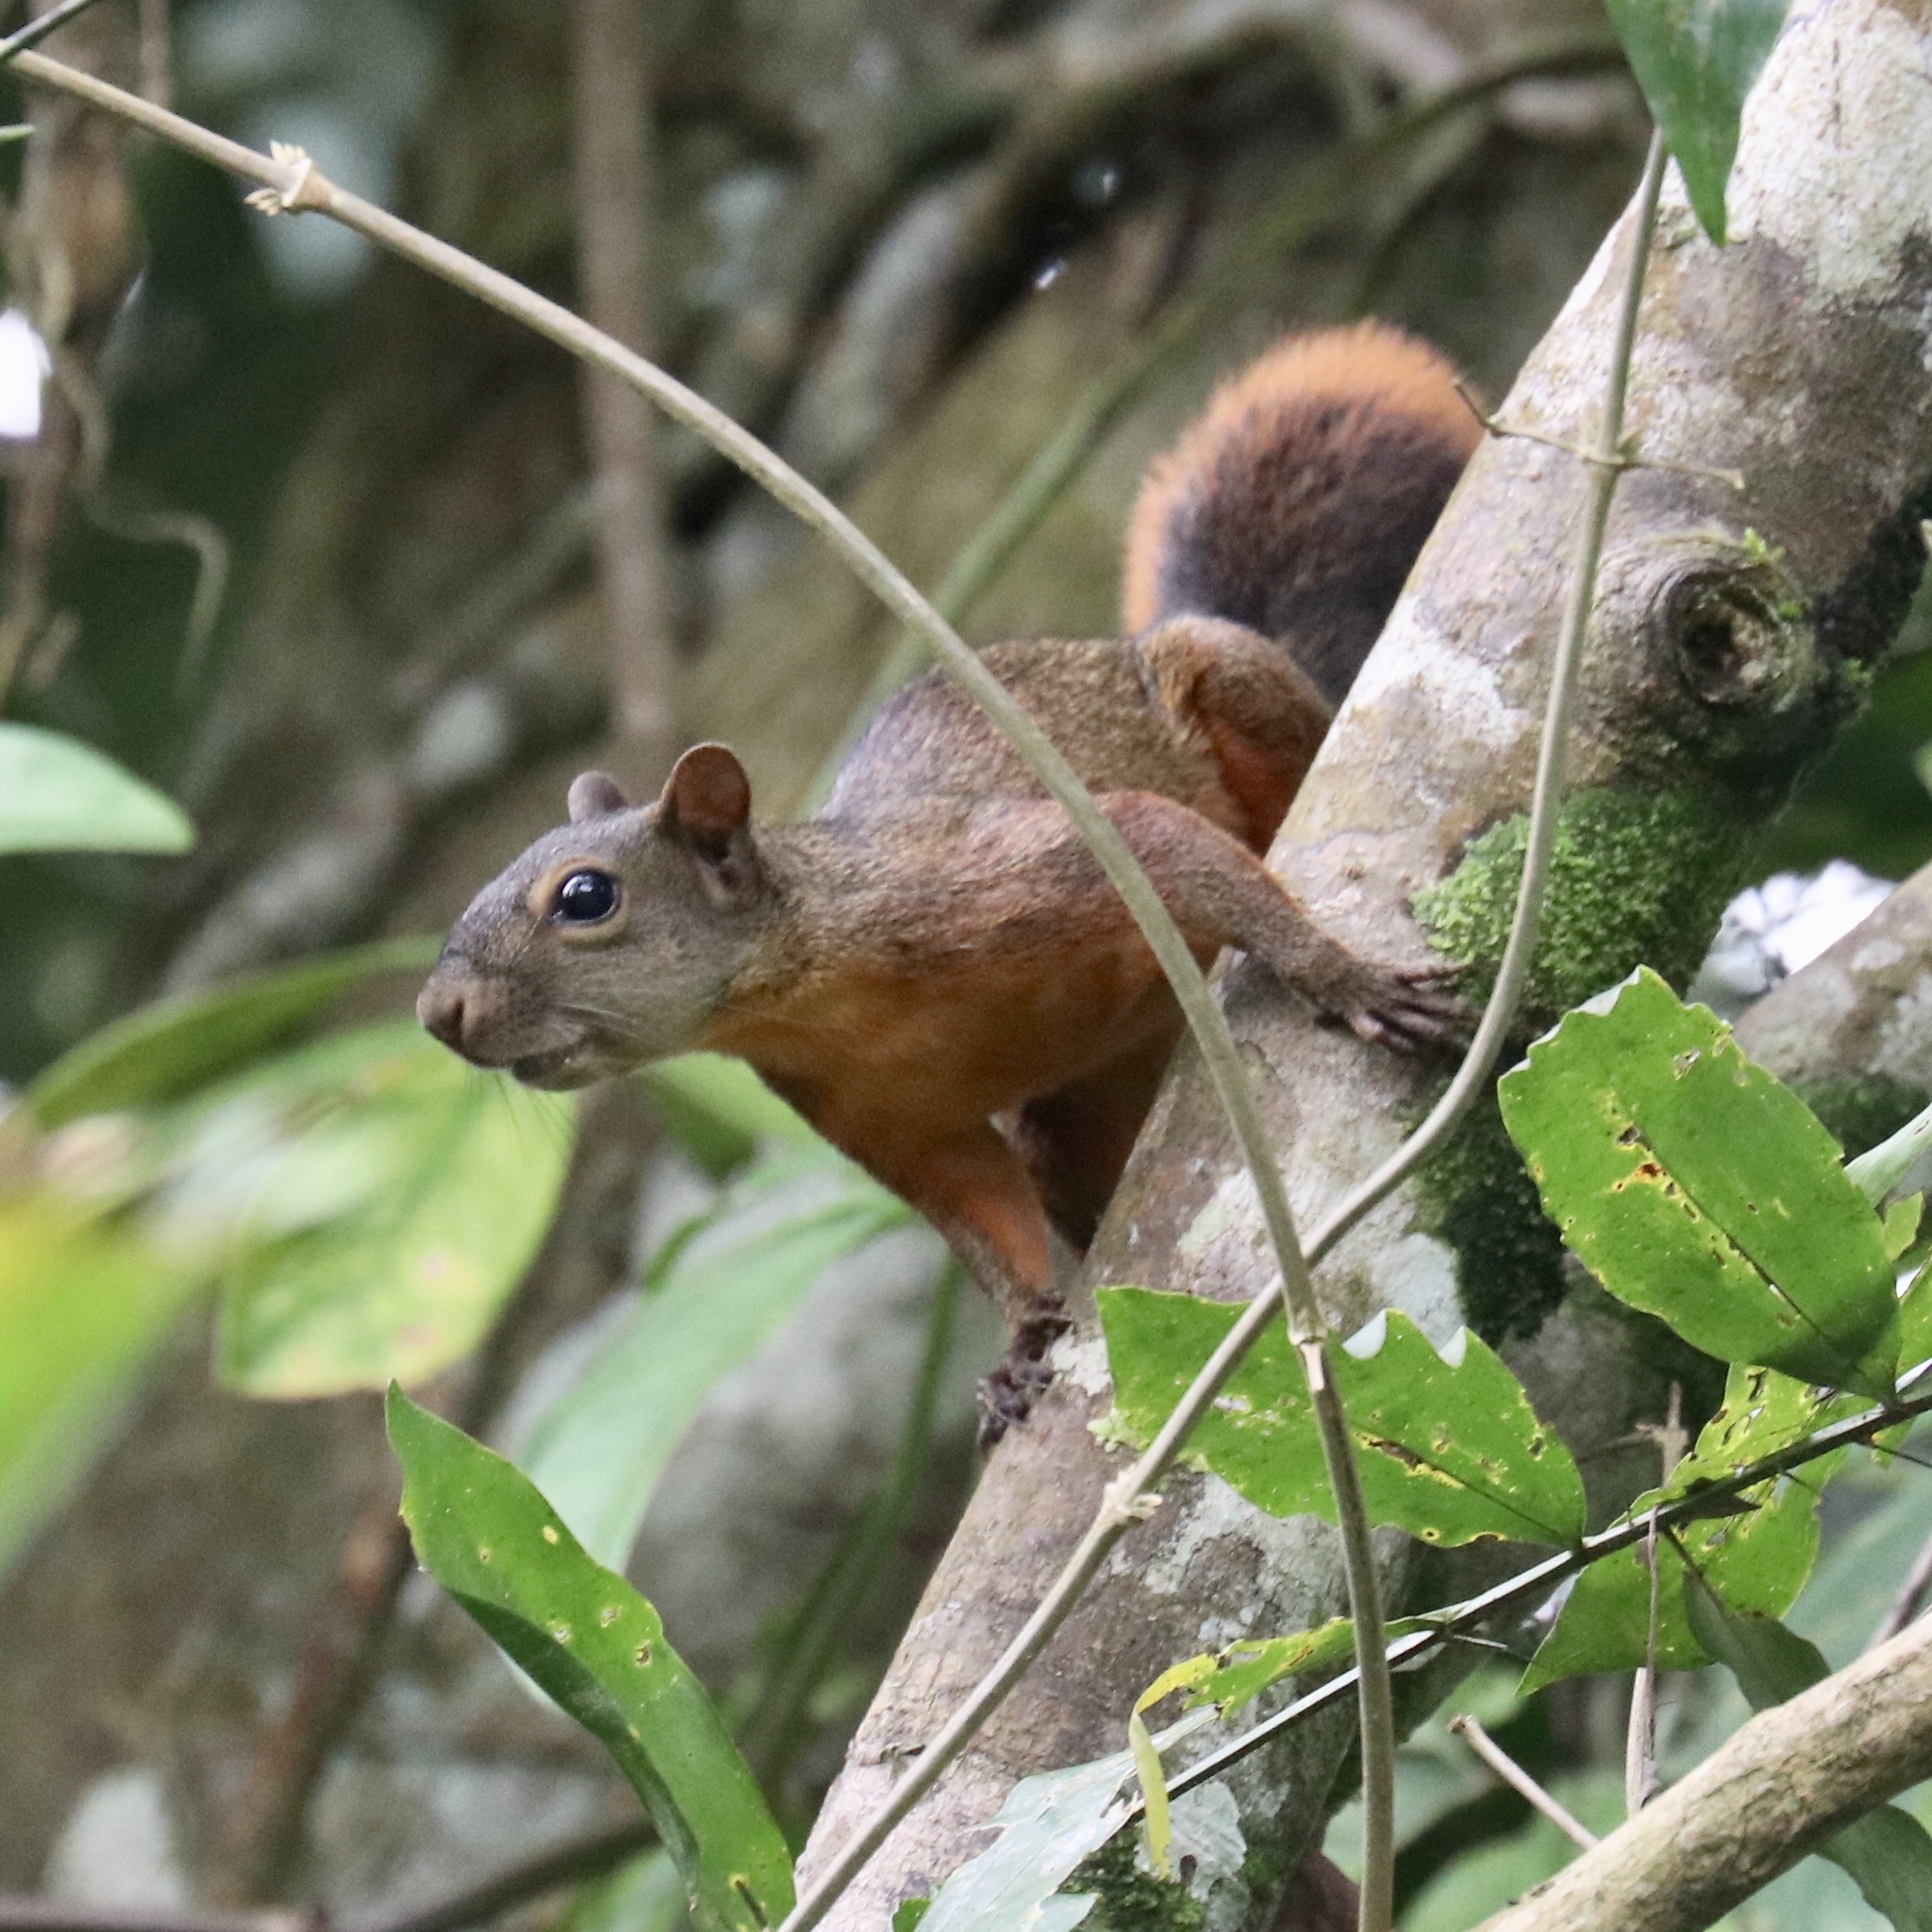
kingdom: Animalia
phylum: Chordata
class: Mammalia
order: Rodentia
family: Sciuridae
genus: Sciurus
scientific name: Sciurus granatensis
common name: Red-tailed squirrel
